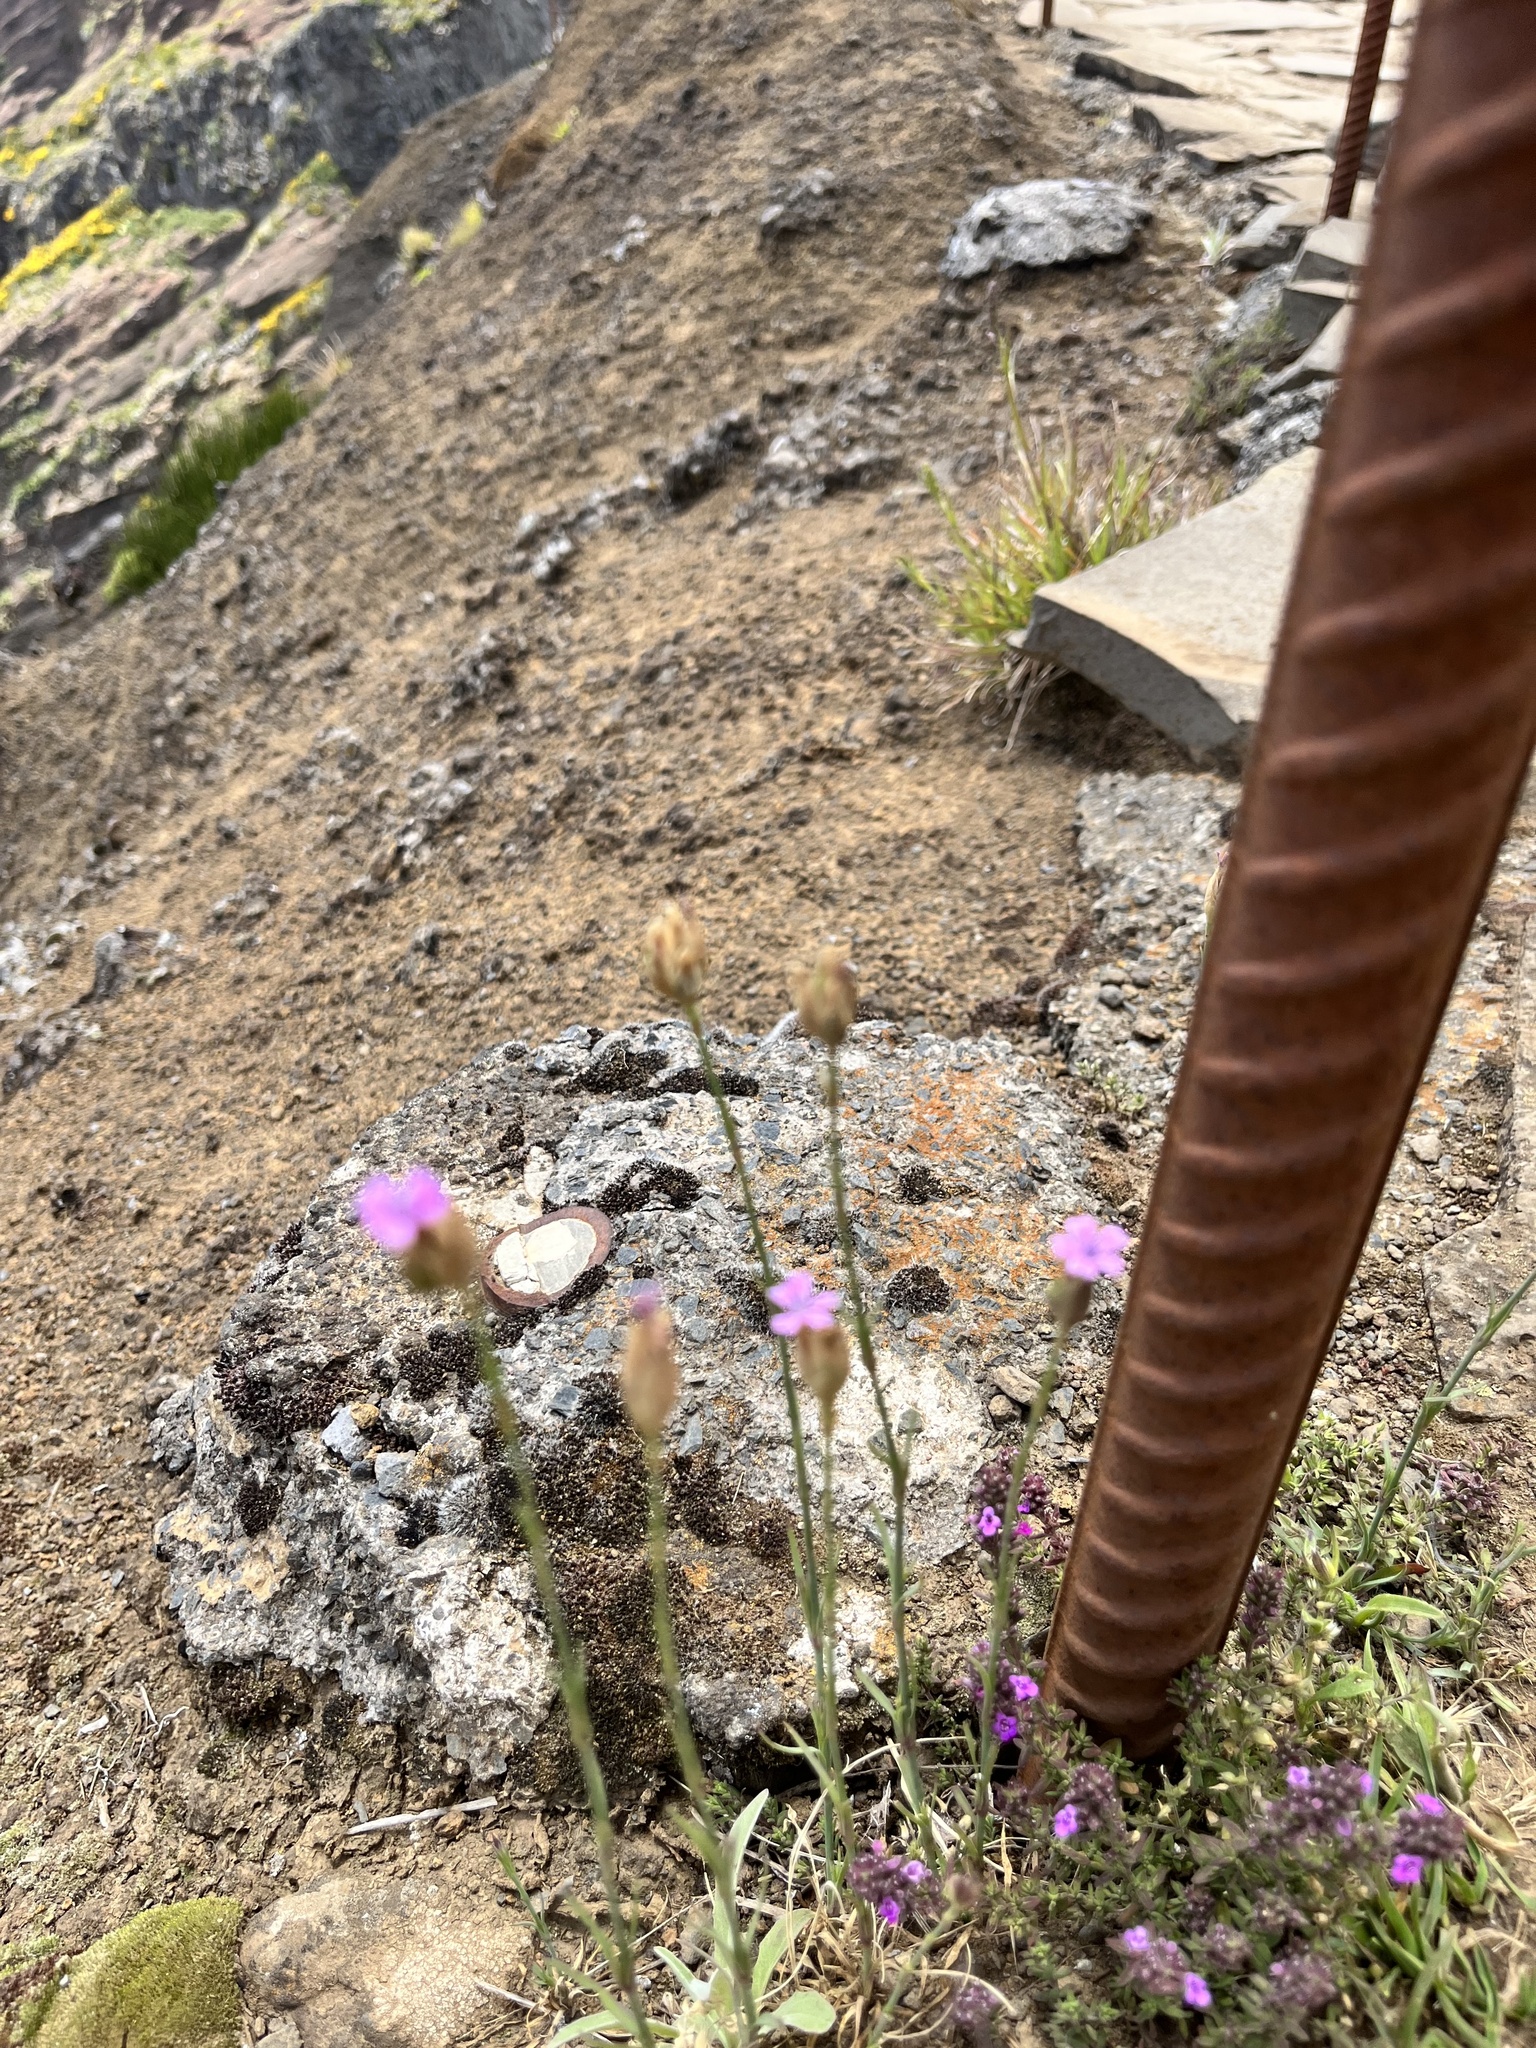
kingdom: Plantae
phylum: Tracheophyta
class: Magnoliopsida
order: Caryophyllales
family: Caryophyllaceae
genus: Petrorhagia
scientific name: Petrorhagia nanteuilii
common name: Proliferous pink
